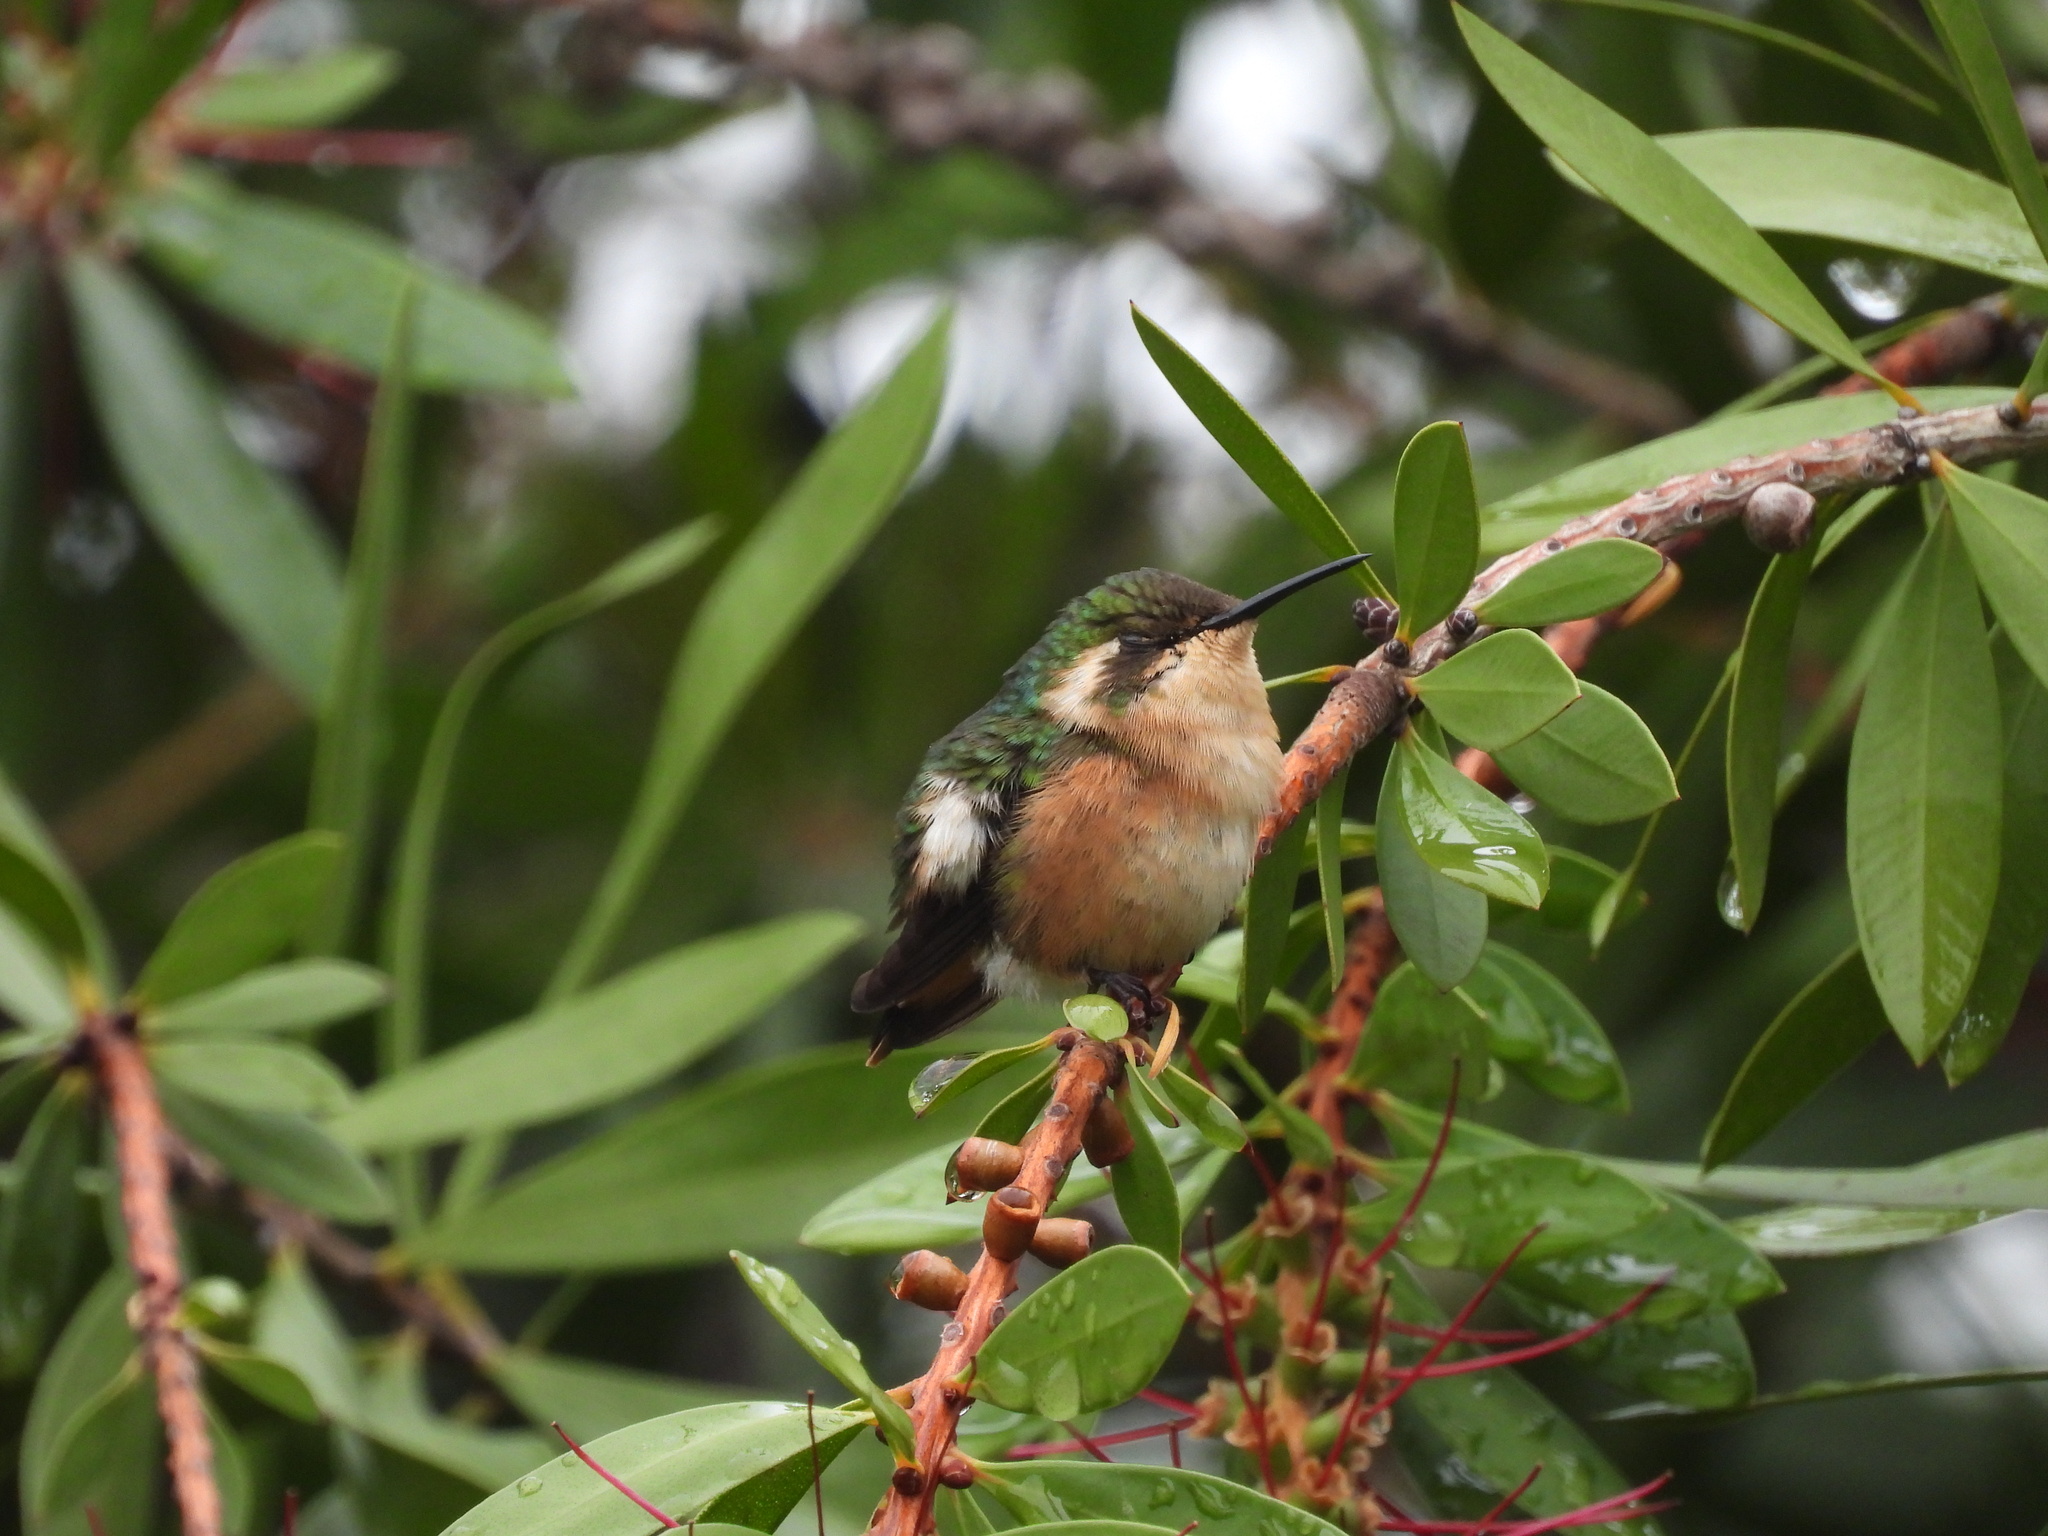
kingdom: Animalia
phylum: Chordata
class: Aves
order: Apodiformes
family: Trochilidae
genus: Microstilbon
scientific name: Microstilbon burmeisteri
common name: Slender-tailed woodstar
